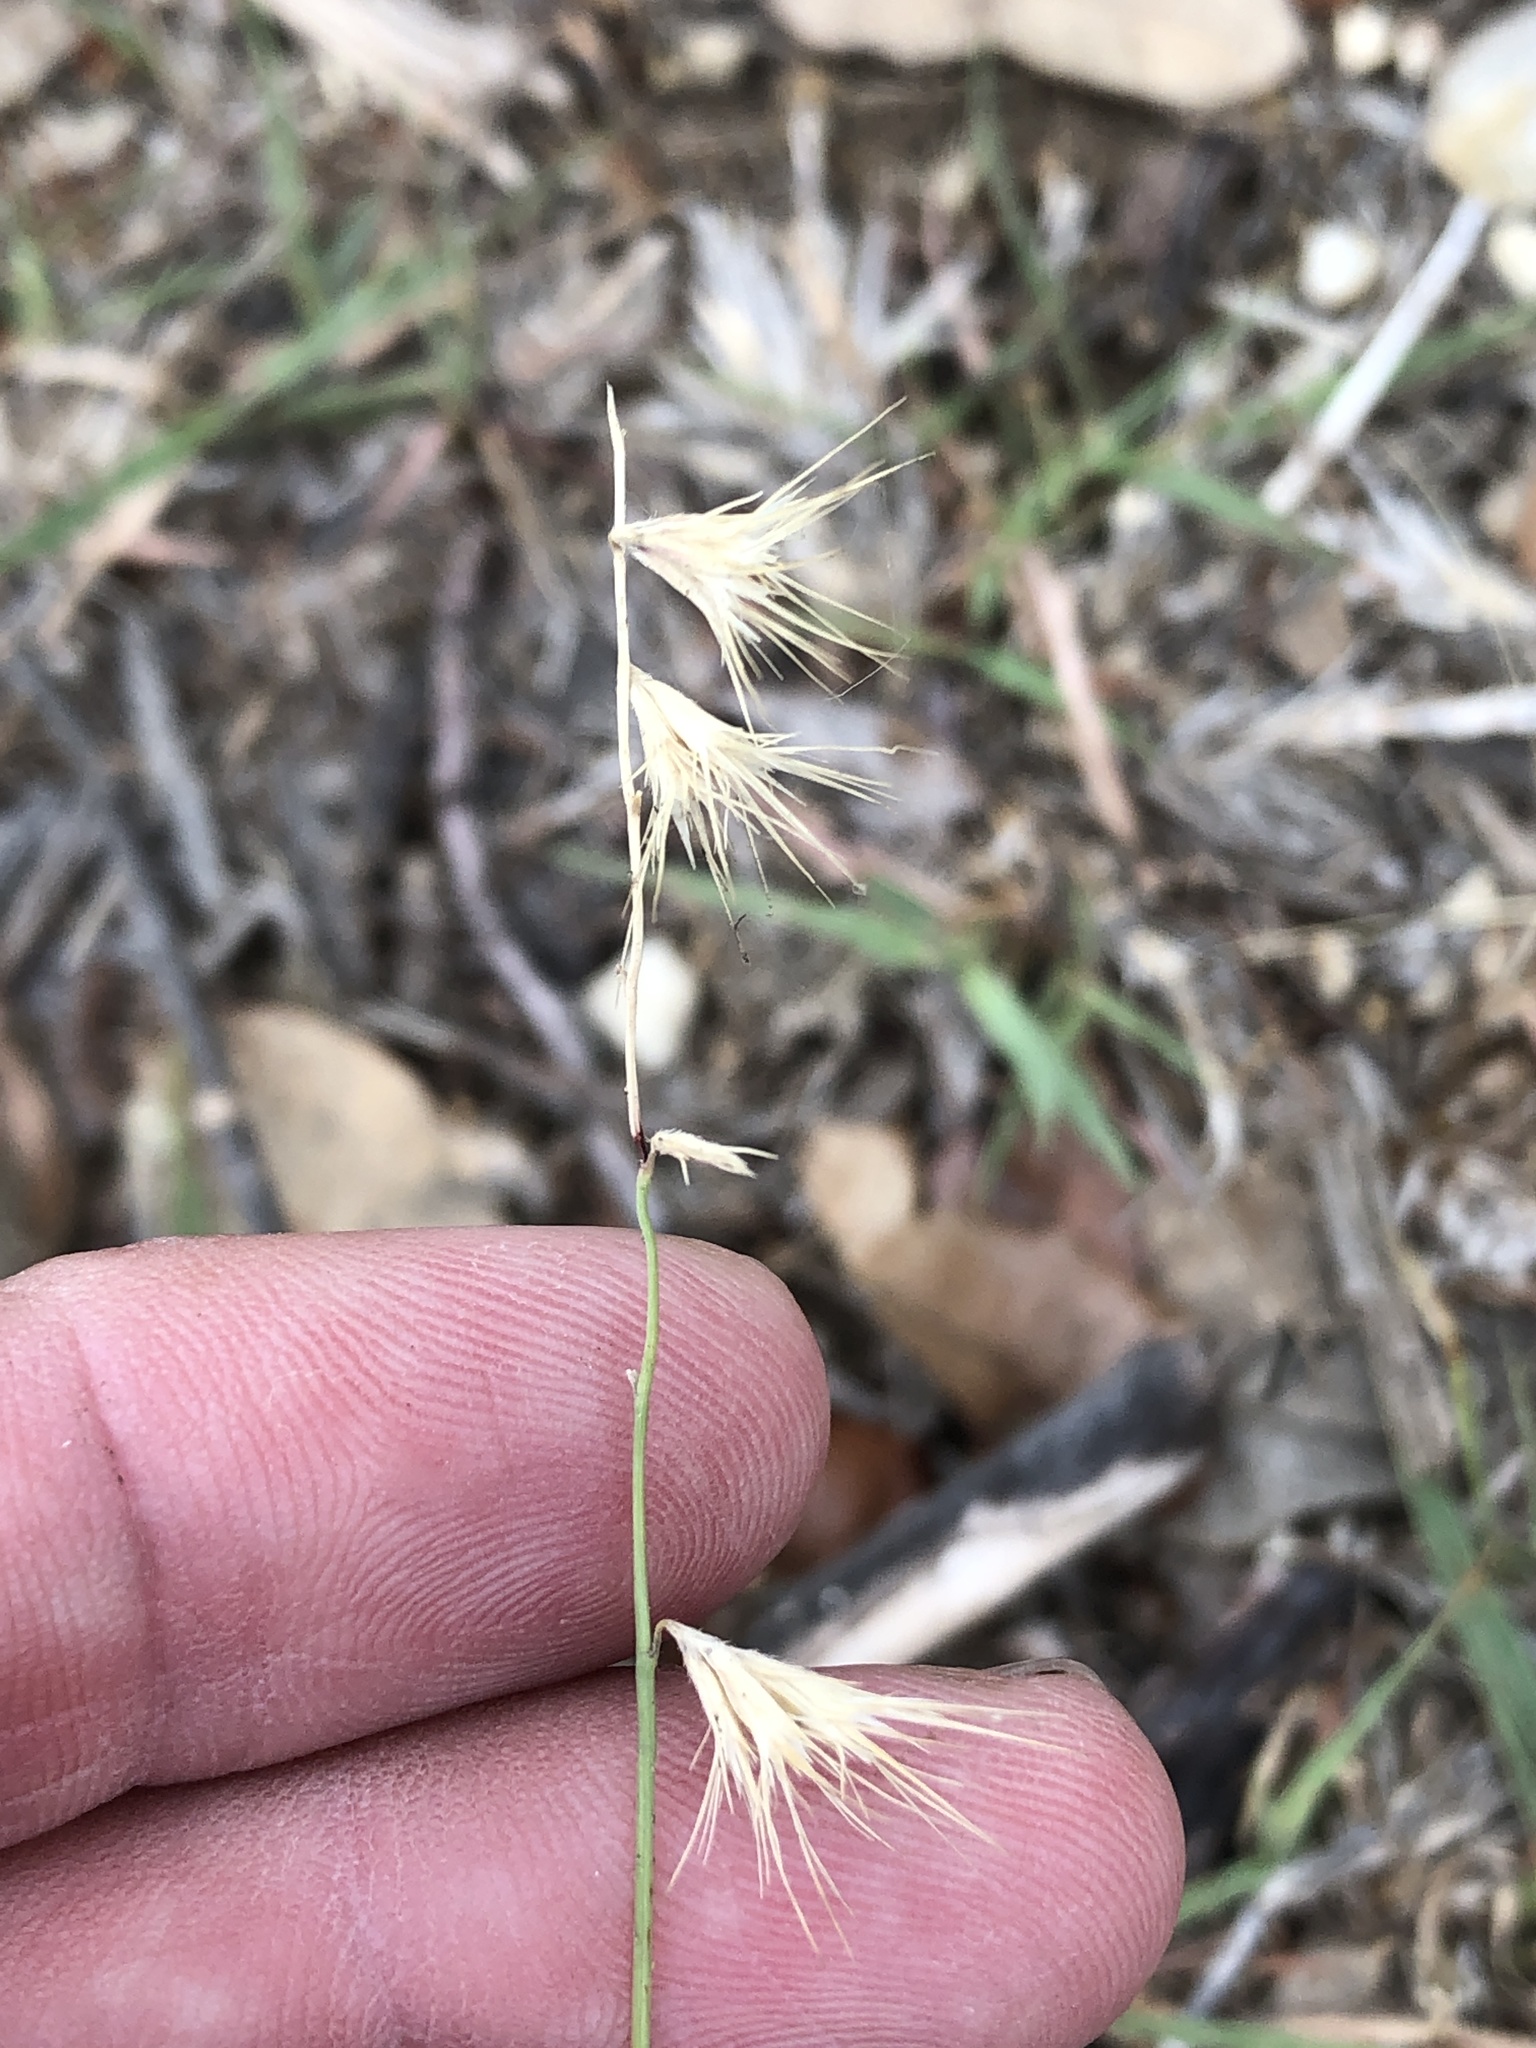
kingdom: Plantae
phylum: Tracheophyta
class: Liliopsida
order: Poales
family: Poaceae
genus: Bouteloua
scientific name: Bouteloua rigidiseta
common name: Texas grama
